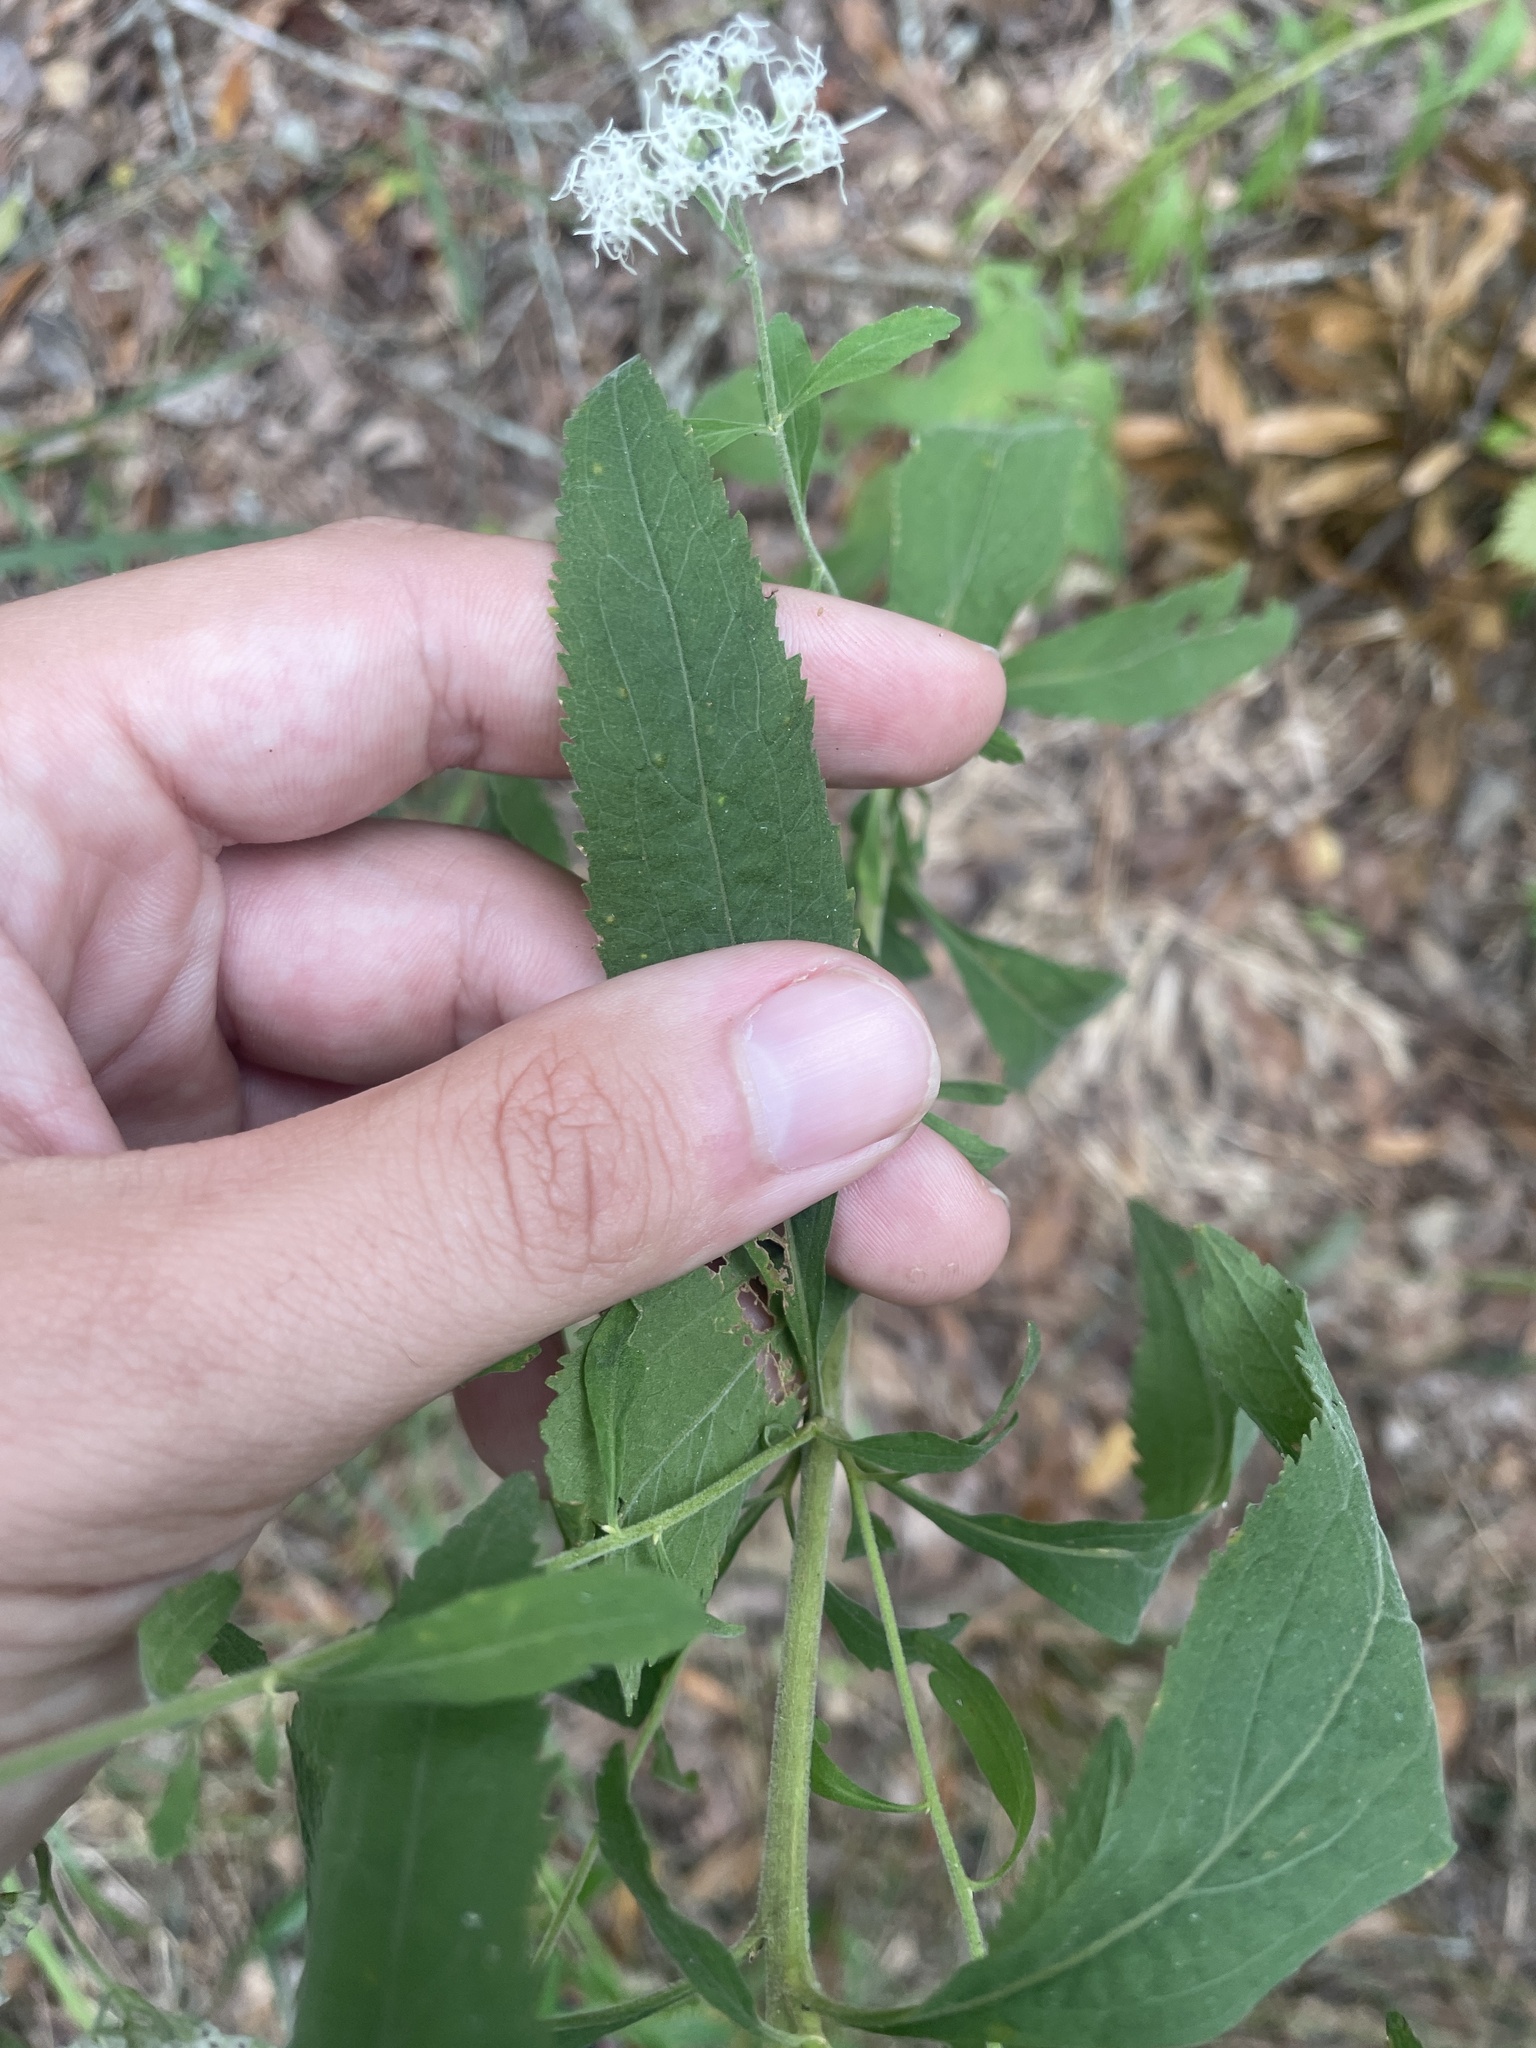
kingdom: Plantae
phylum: Tracheophyta
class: Magnoliopsida
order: Asterales
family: Asteraceae
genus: Eupatorium
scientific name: Eupatorium semiserratum
